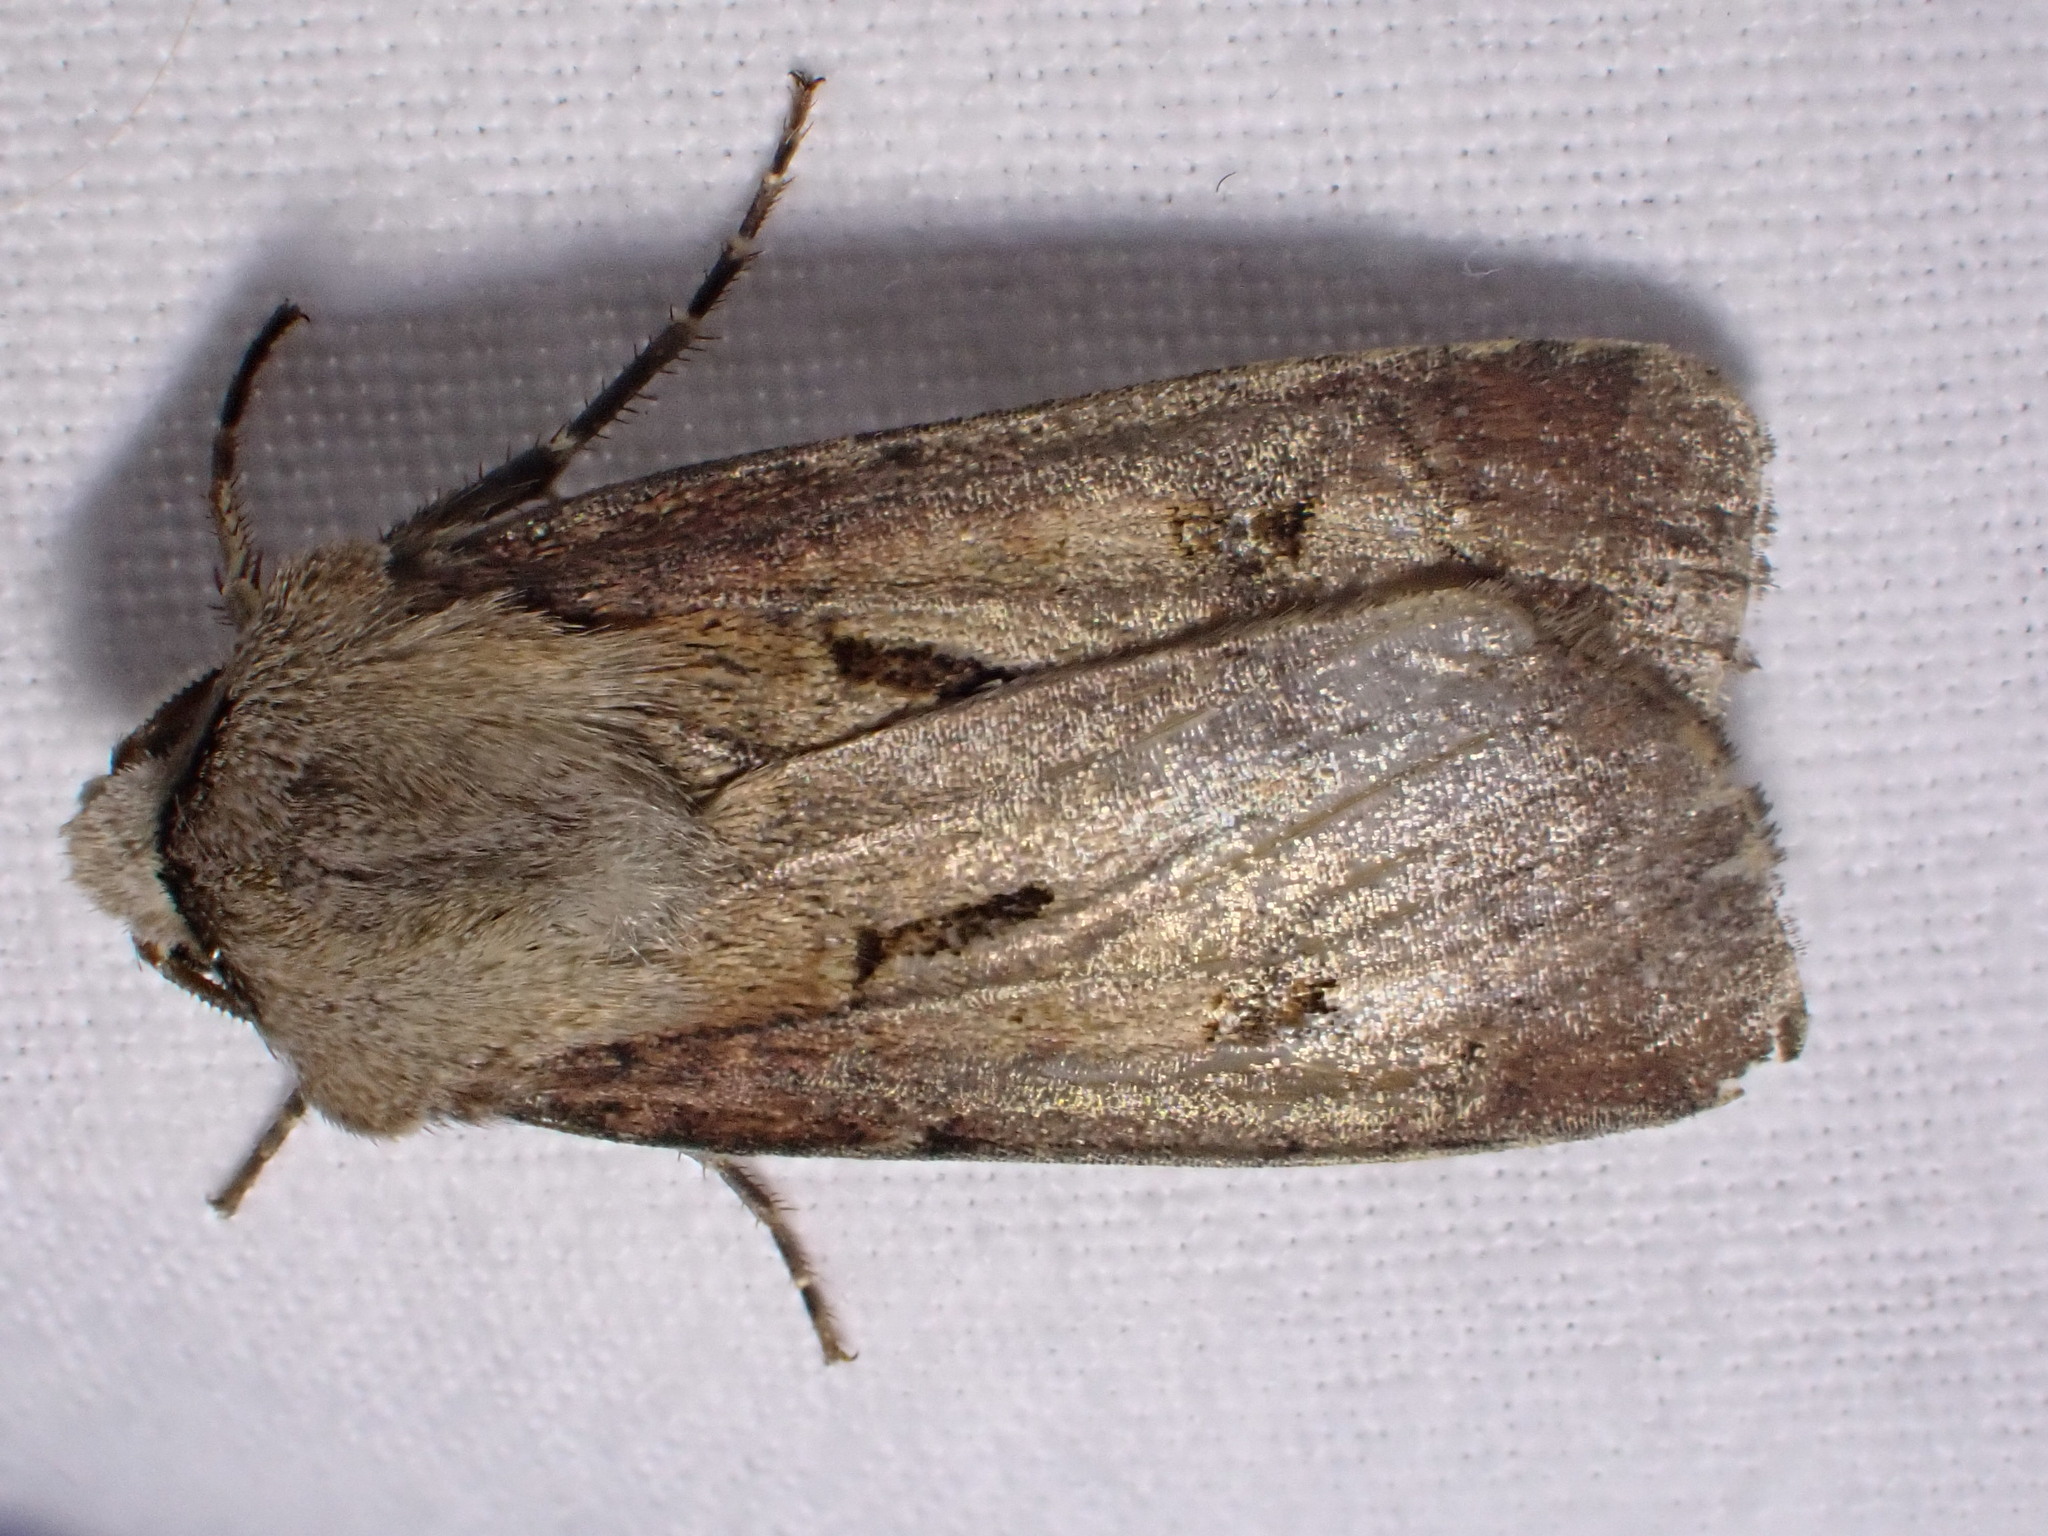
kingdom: Animalia
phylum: Arthropoda
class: Insecta
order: Lepidoptera
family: Noctuidae
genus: Agrotis
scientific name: Agrotis exclamationis
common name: Heart and dart
